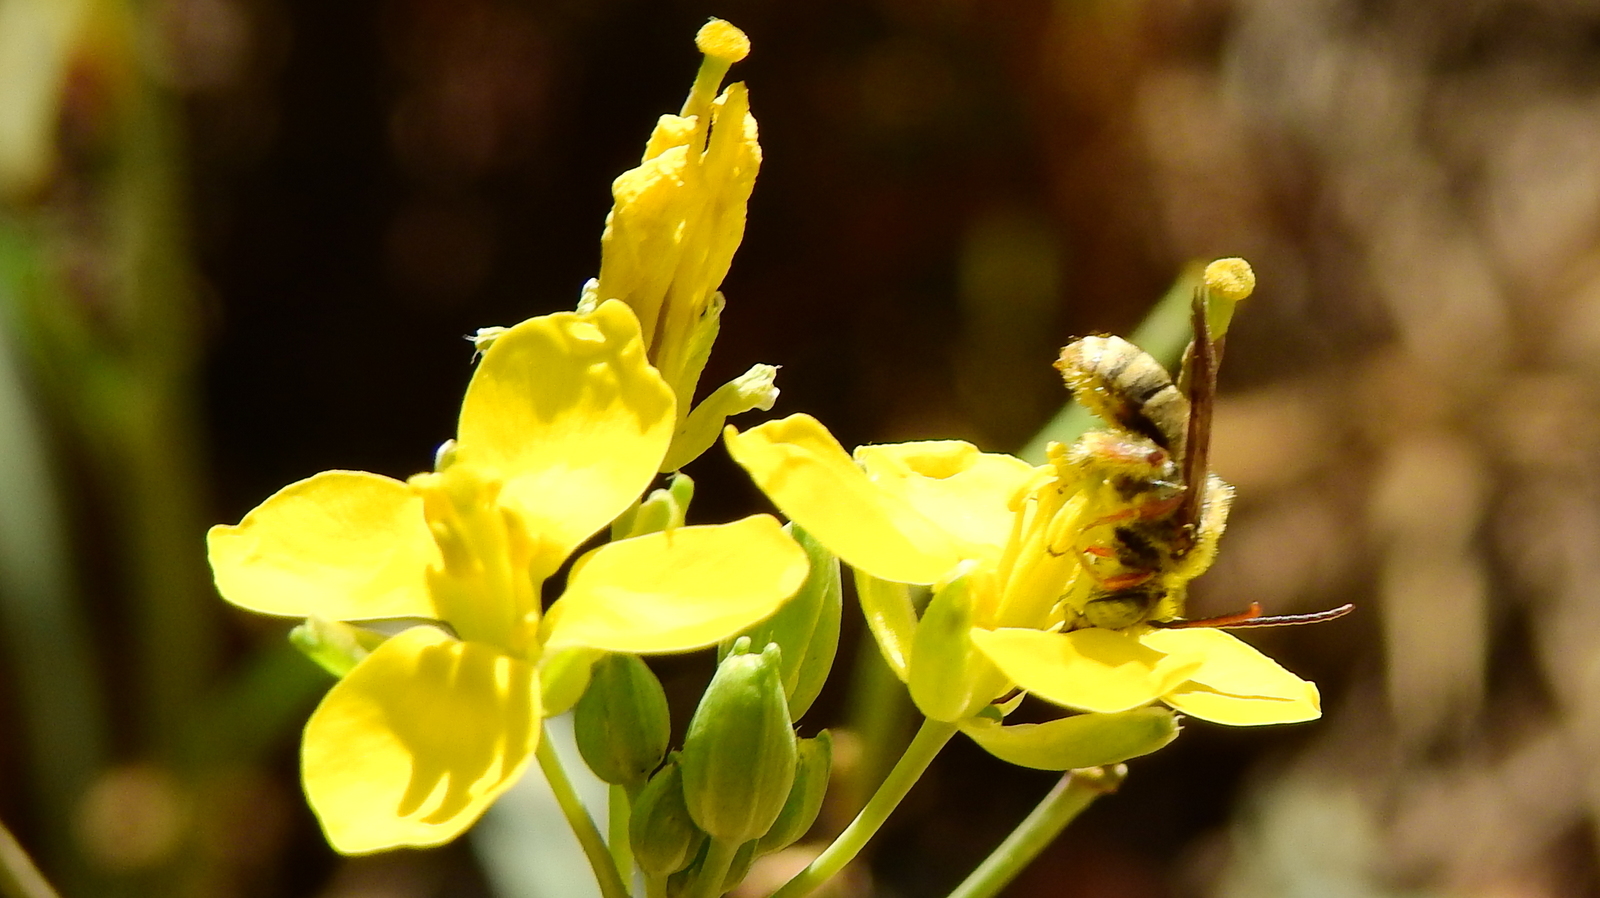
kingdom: Plantae
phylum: Tracheophyta
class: Magnoliopsida
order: Brassicales
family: Brassicaceae
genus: Diplotaxis
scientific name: Diplotaxis tenuifolia
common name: Perennial wall-rocket
